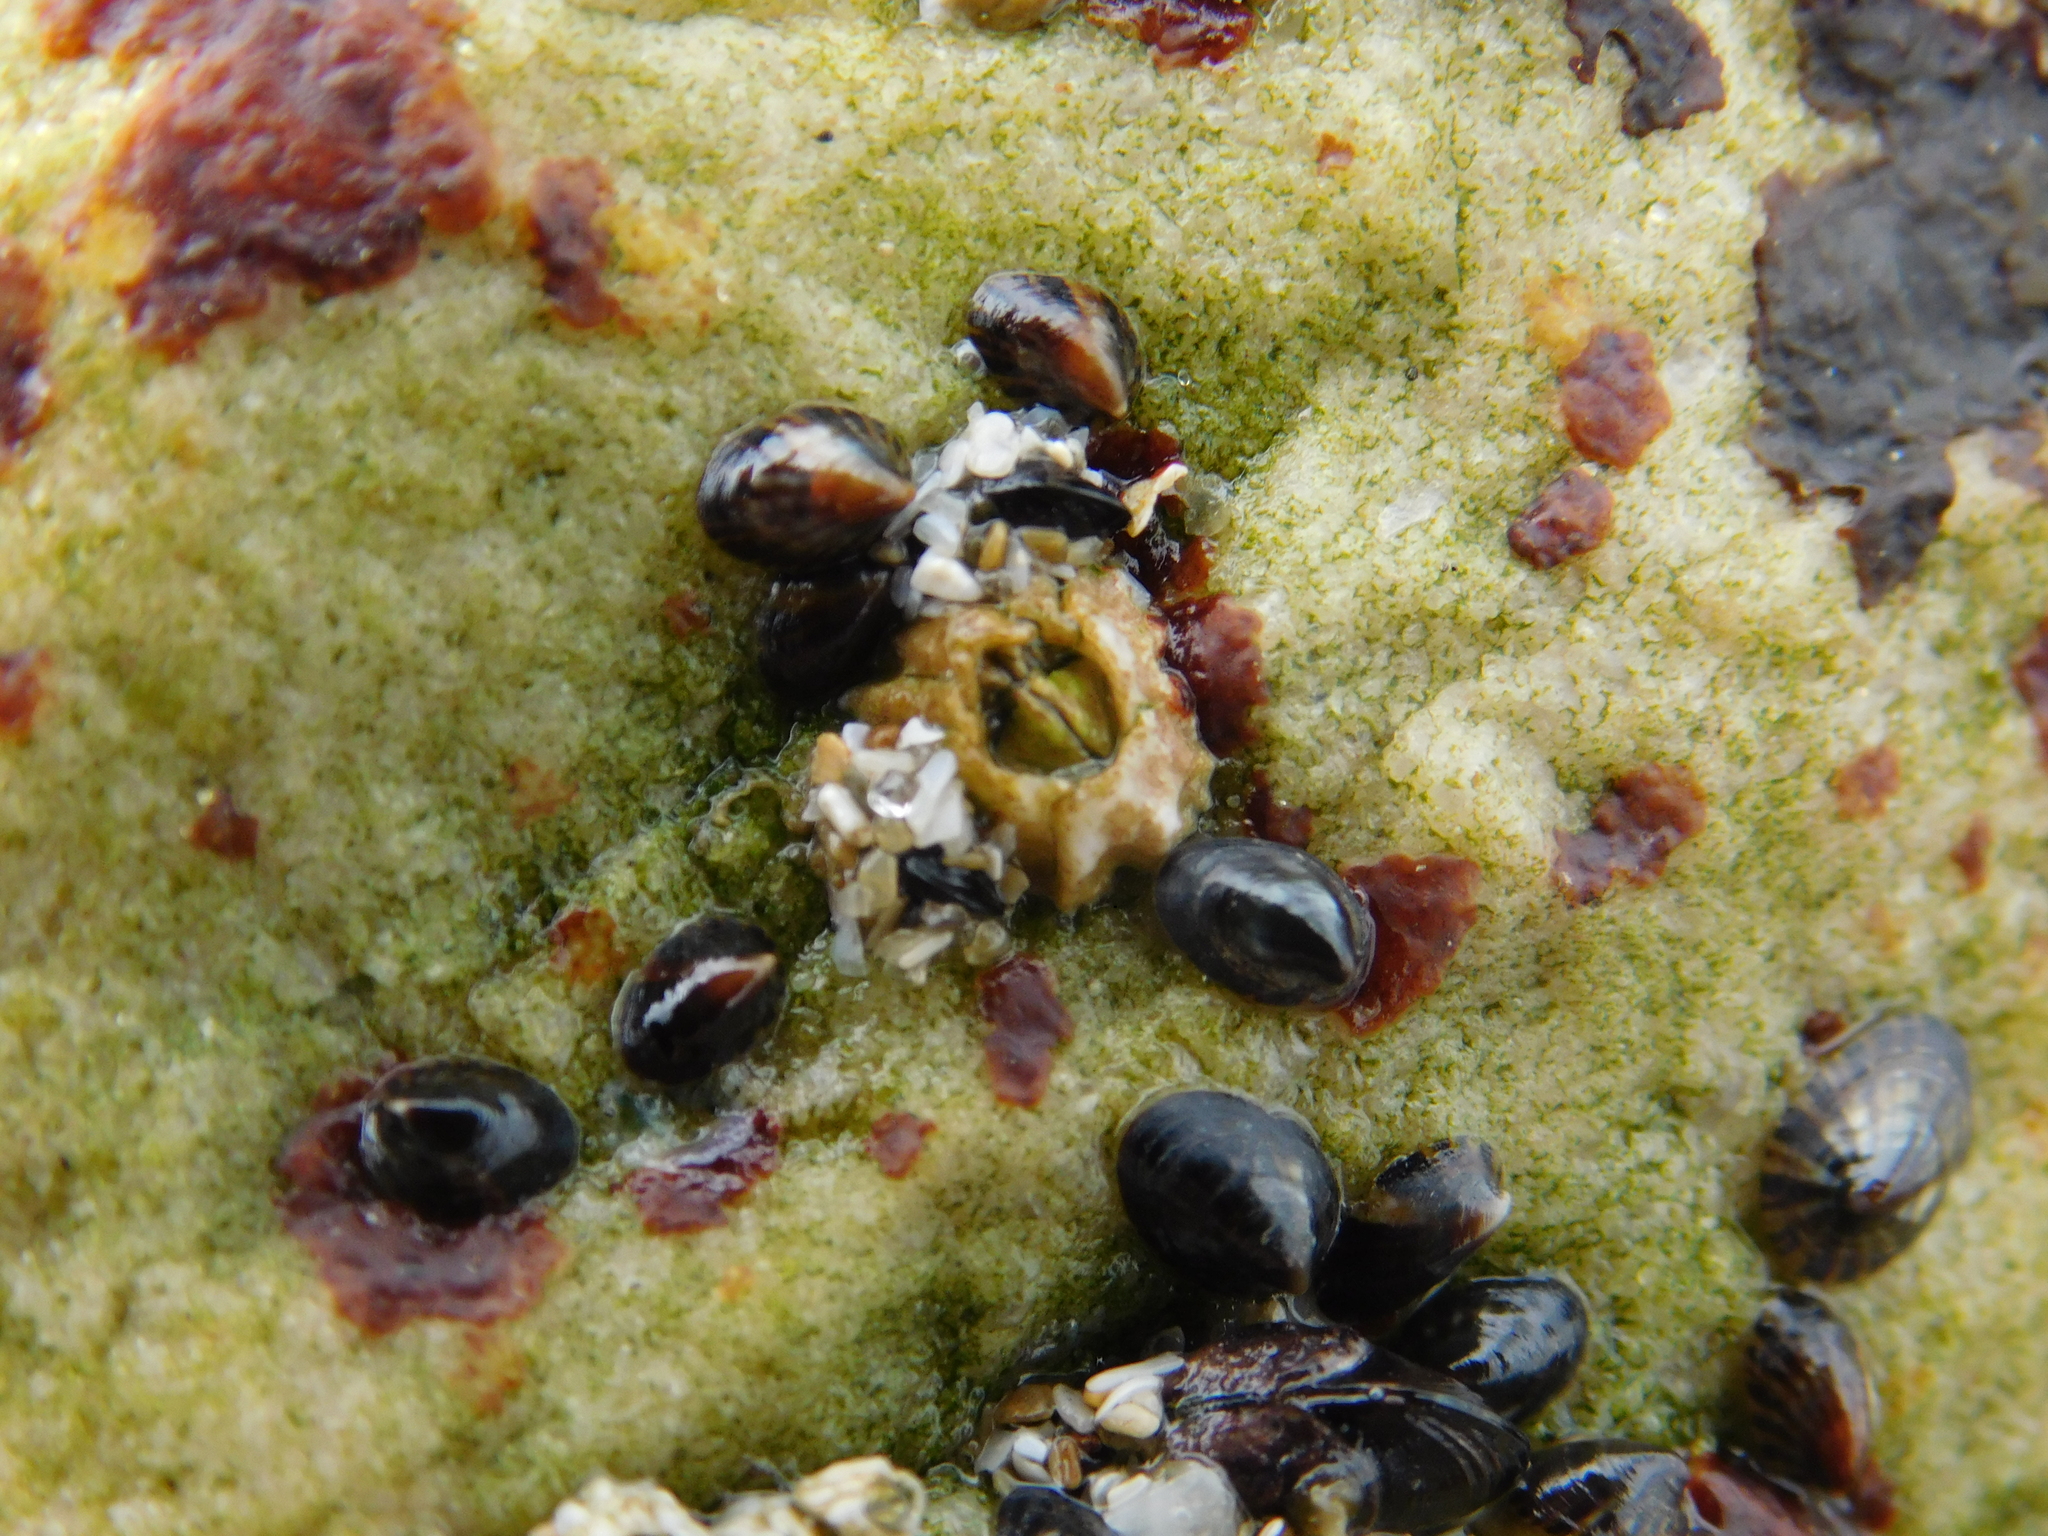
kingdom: Animalia
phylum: Arthropoda
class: Maxillopoda
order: Sessilia
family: Balanidae
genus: Balanus
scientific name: Balanus glandula
